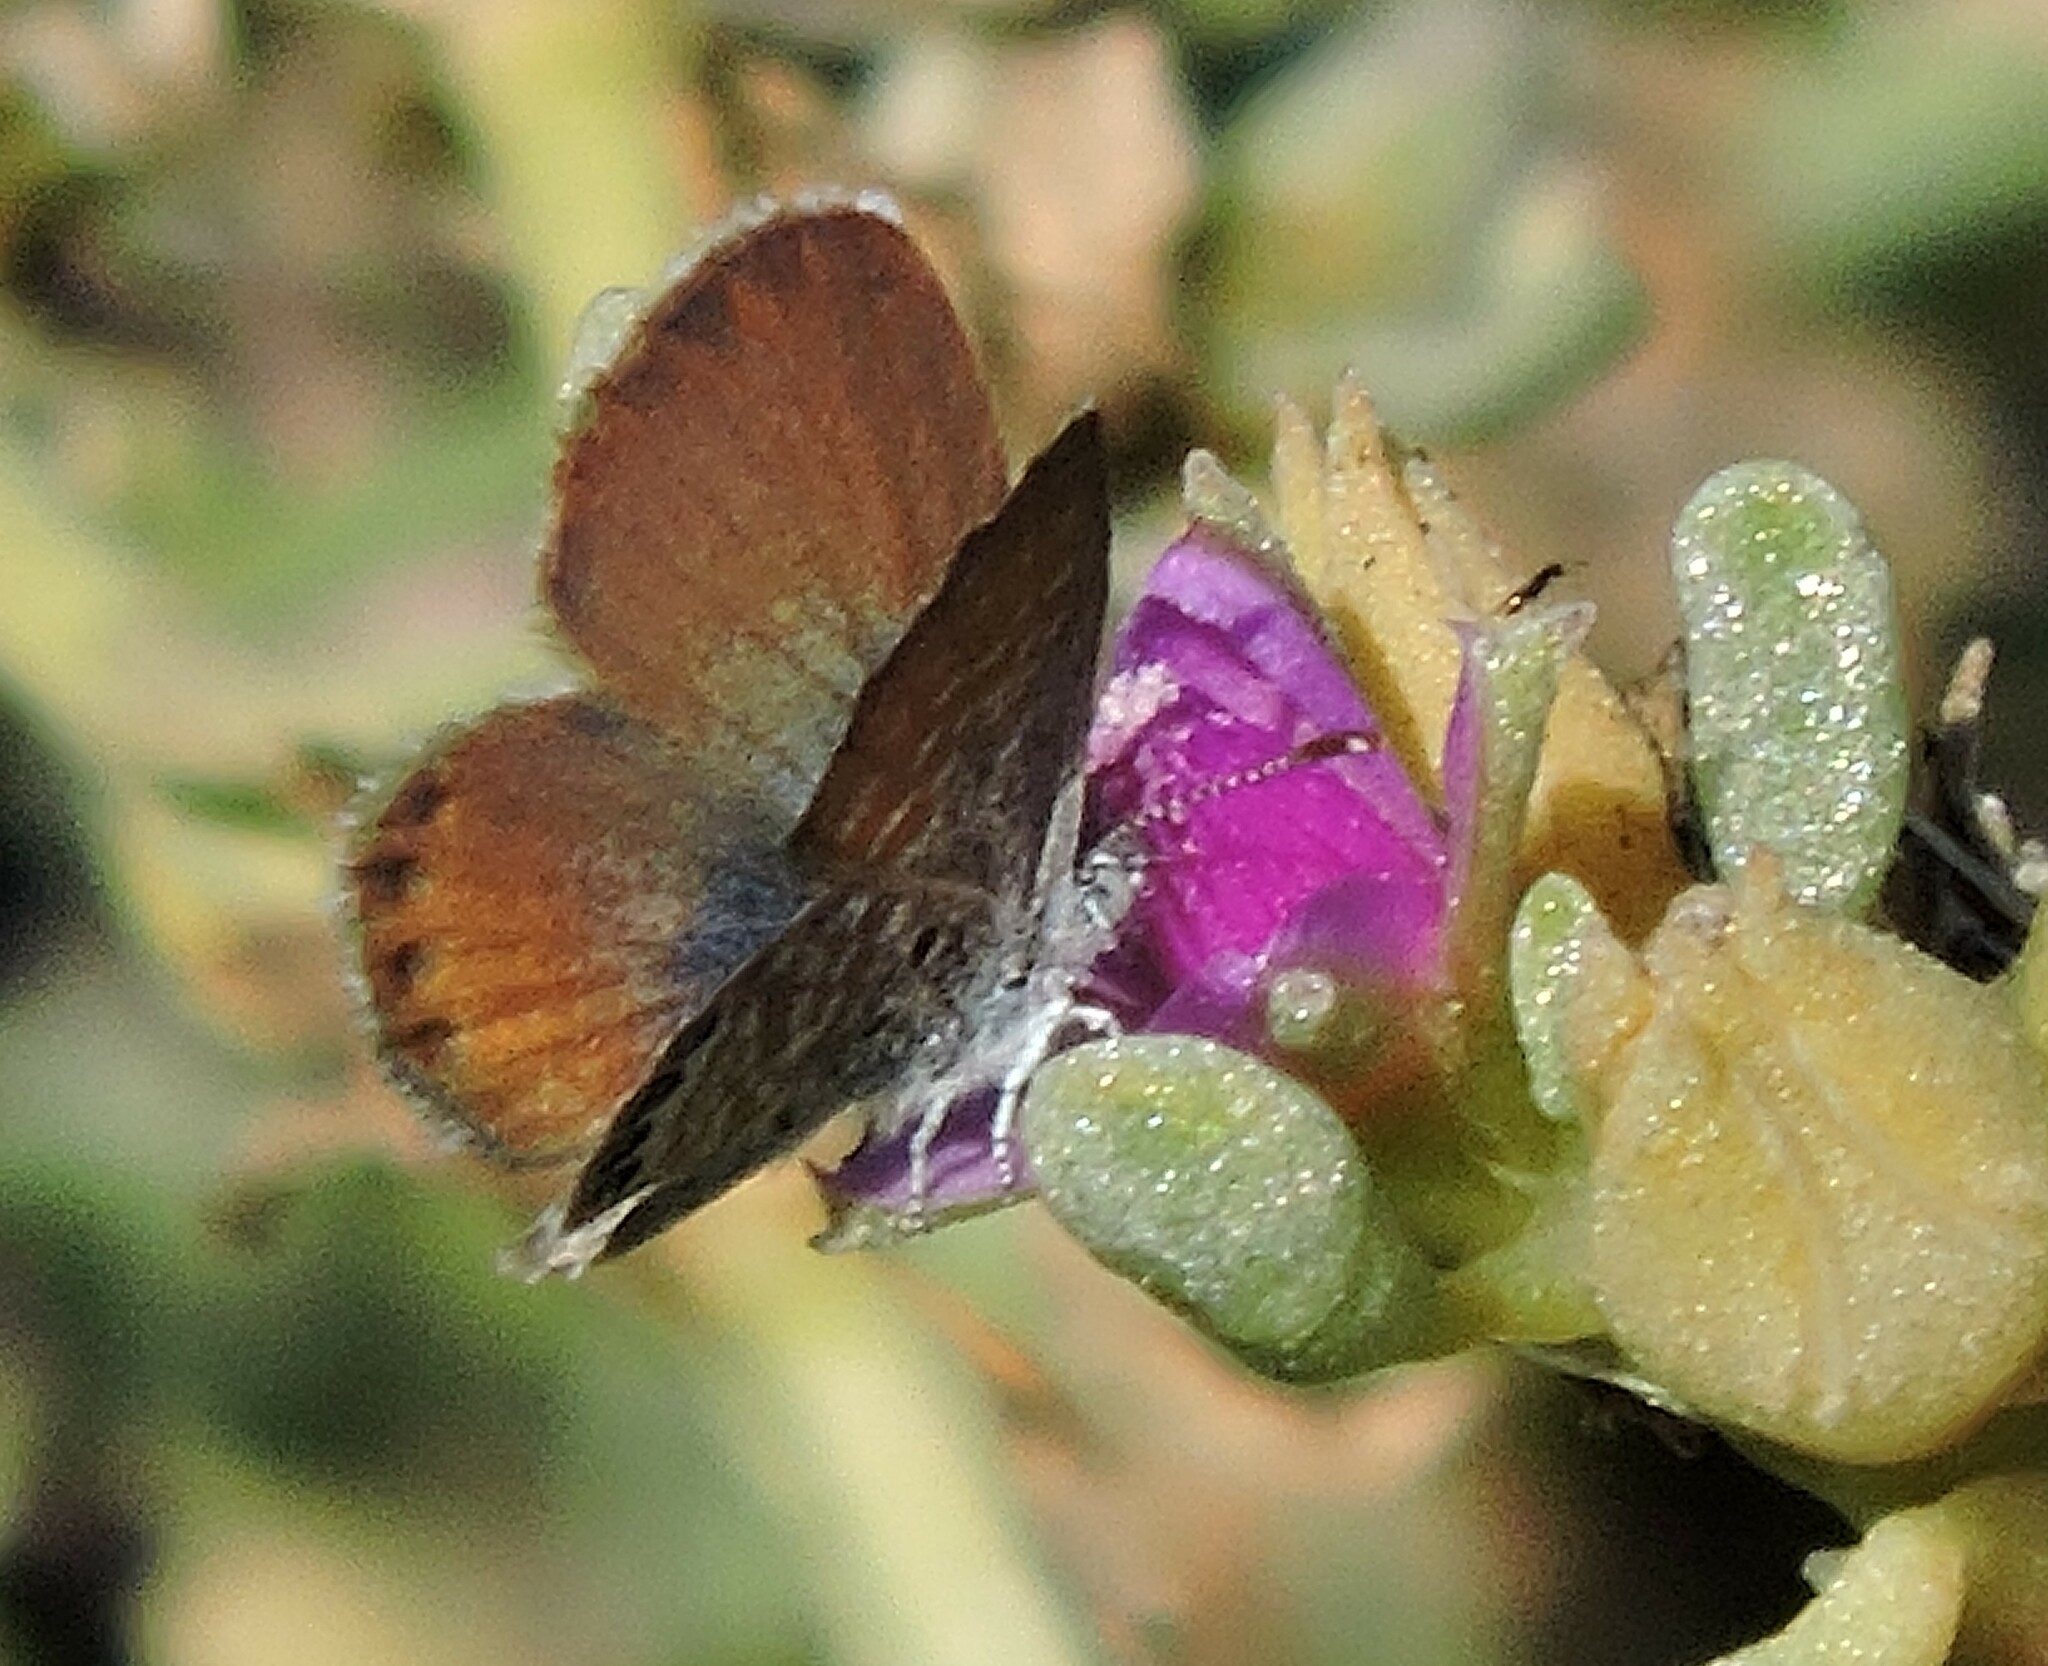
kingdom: Animalia
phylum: Arthropoda
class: Insecta
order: Lepidoptera
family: Lycaenidae
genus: Brephidium
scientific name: Brephidium exilis
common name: Pygmy blue
